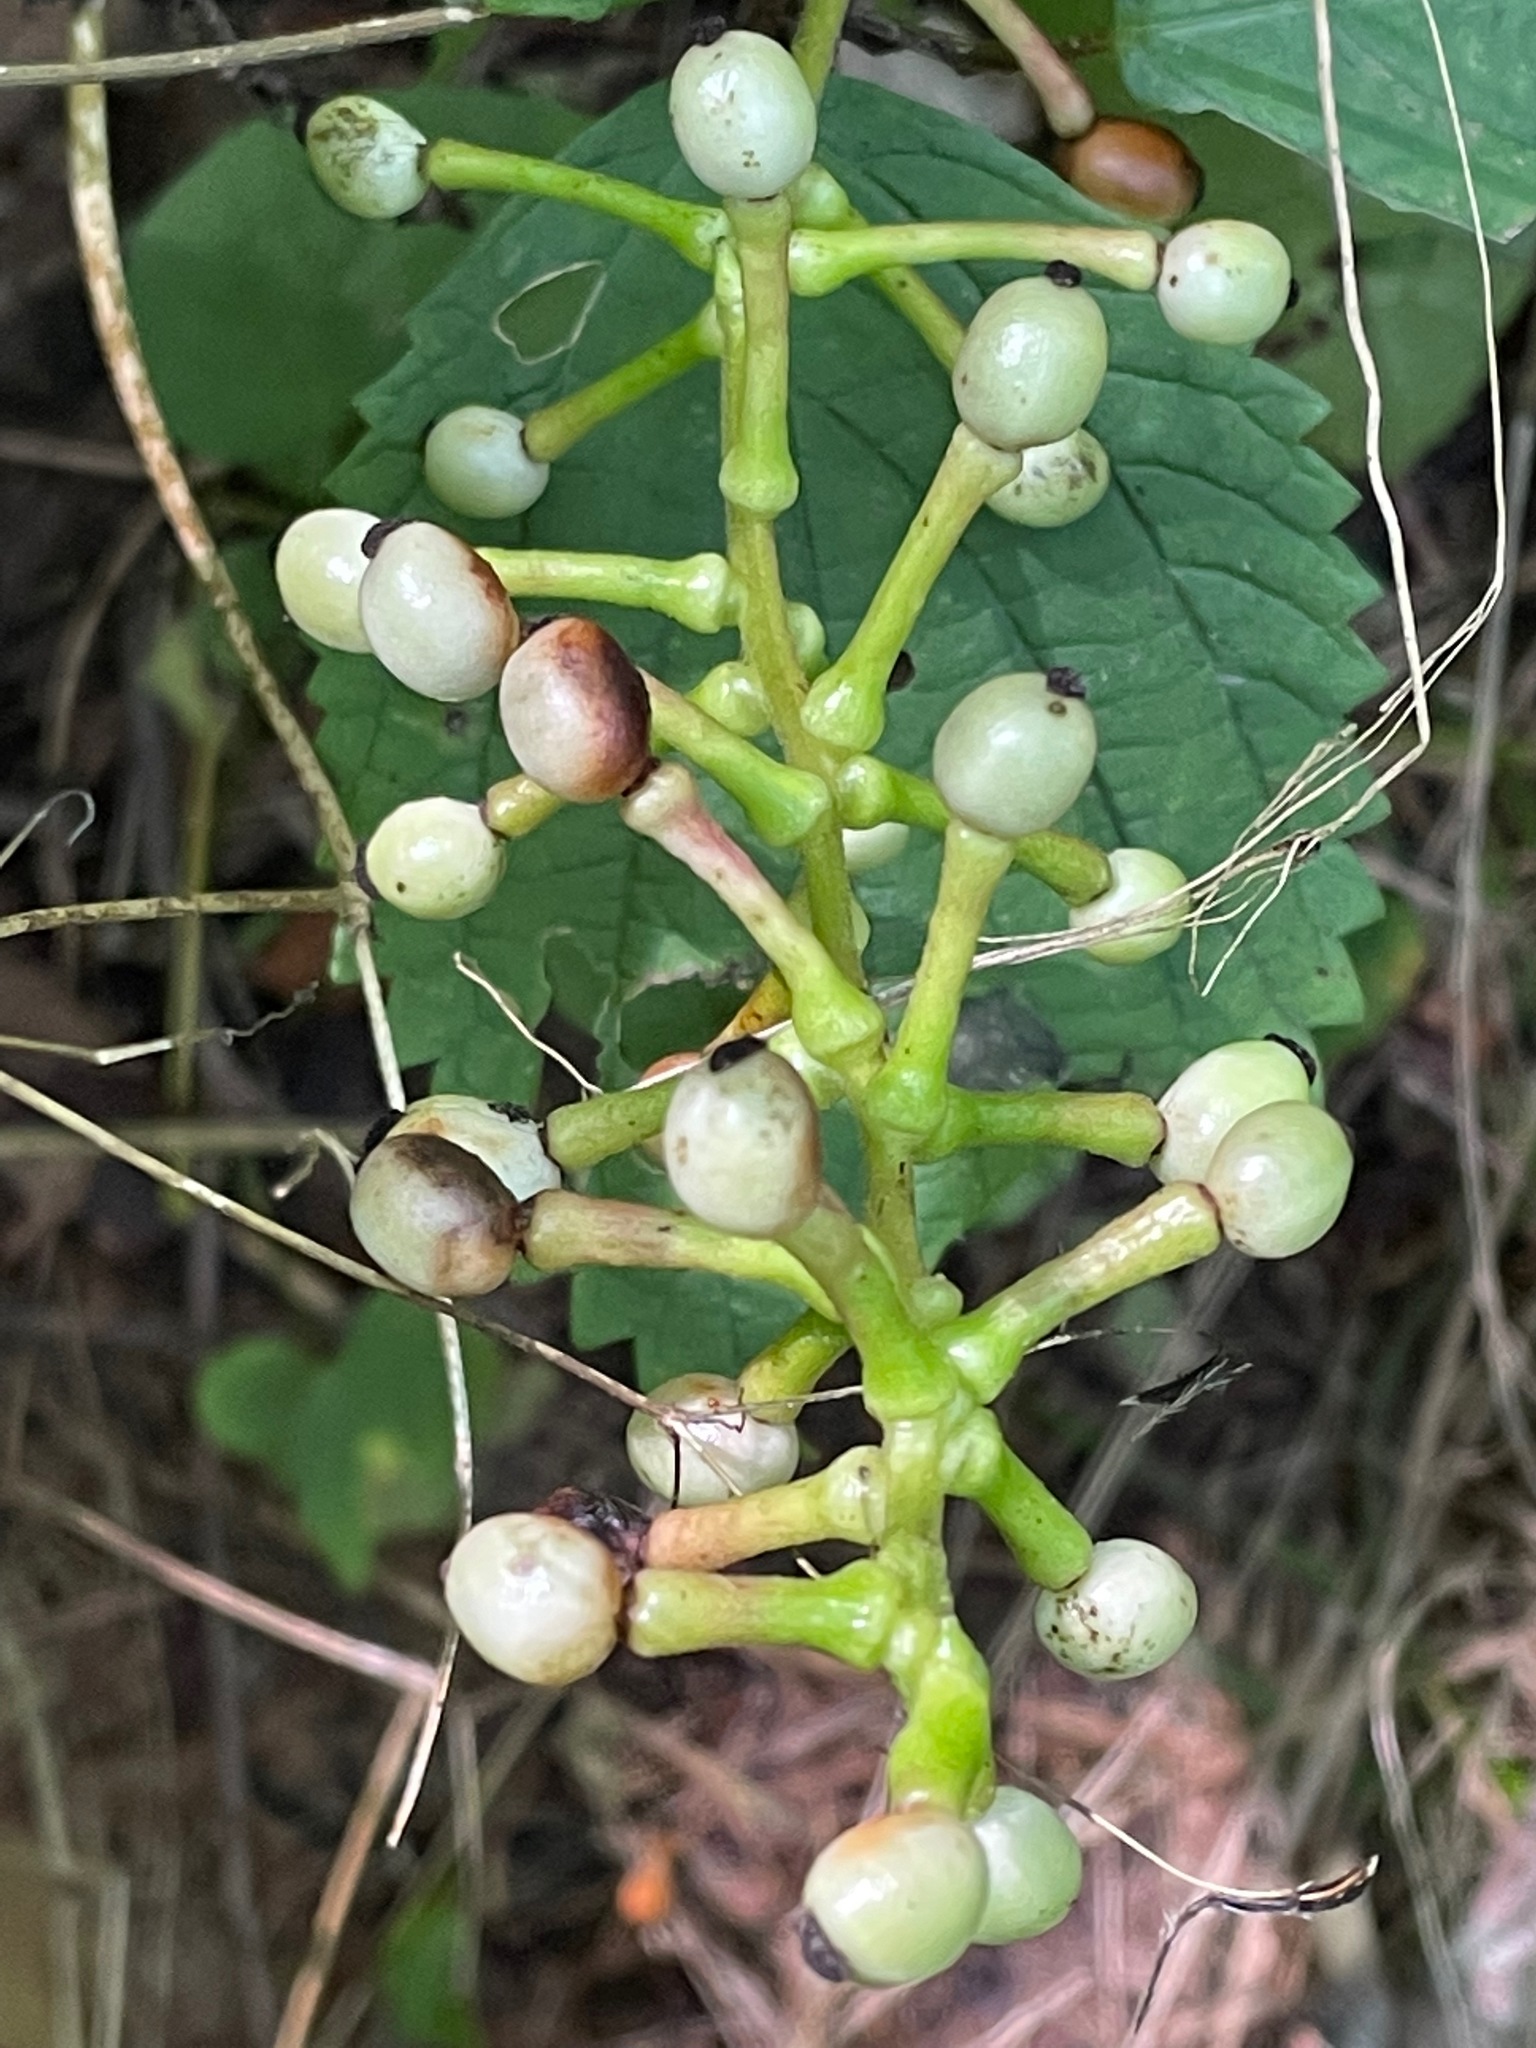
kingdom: Plantae
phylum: Tracheophyta
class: Magnoliopsida
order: Ranunculales
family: Ranunculaceae
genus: Actaea
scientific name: Actaea pachypoda
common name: Doll's-eyes
